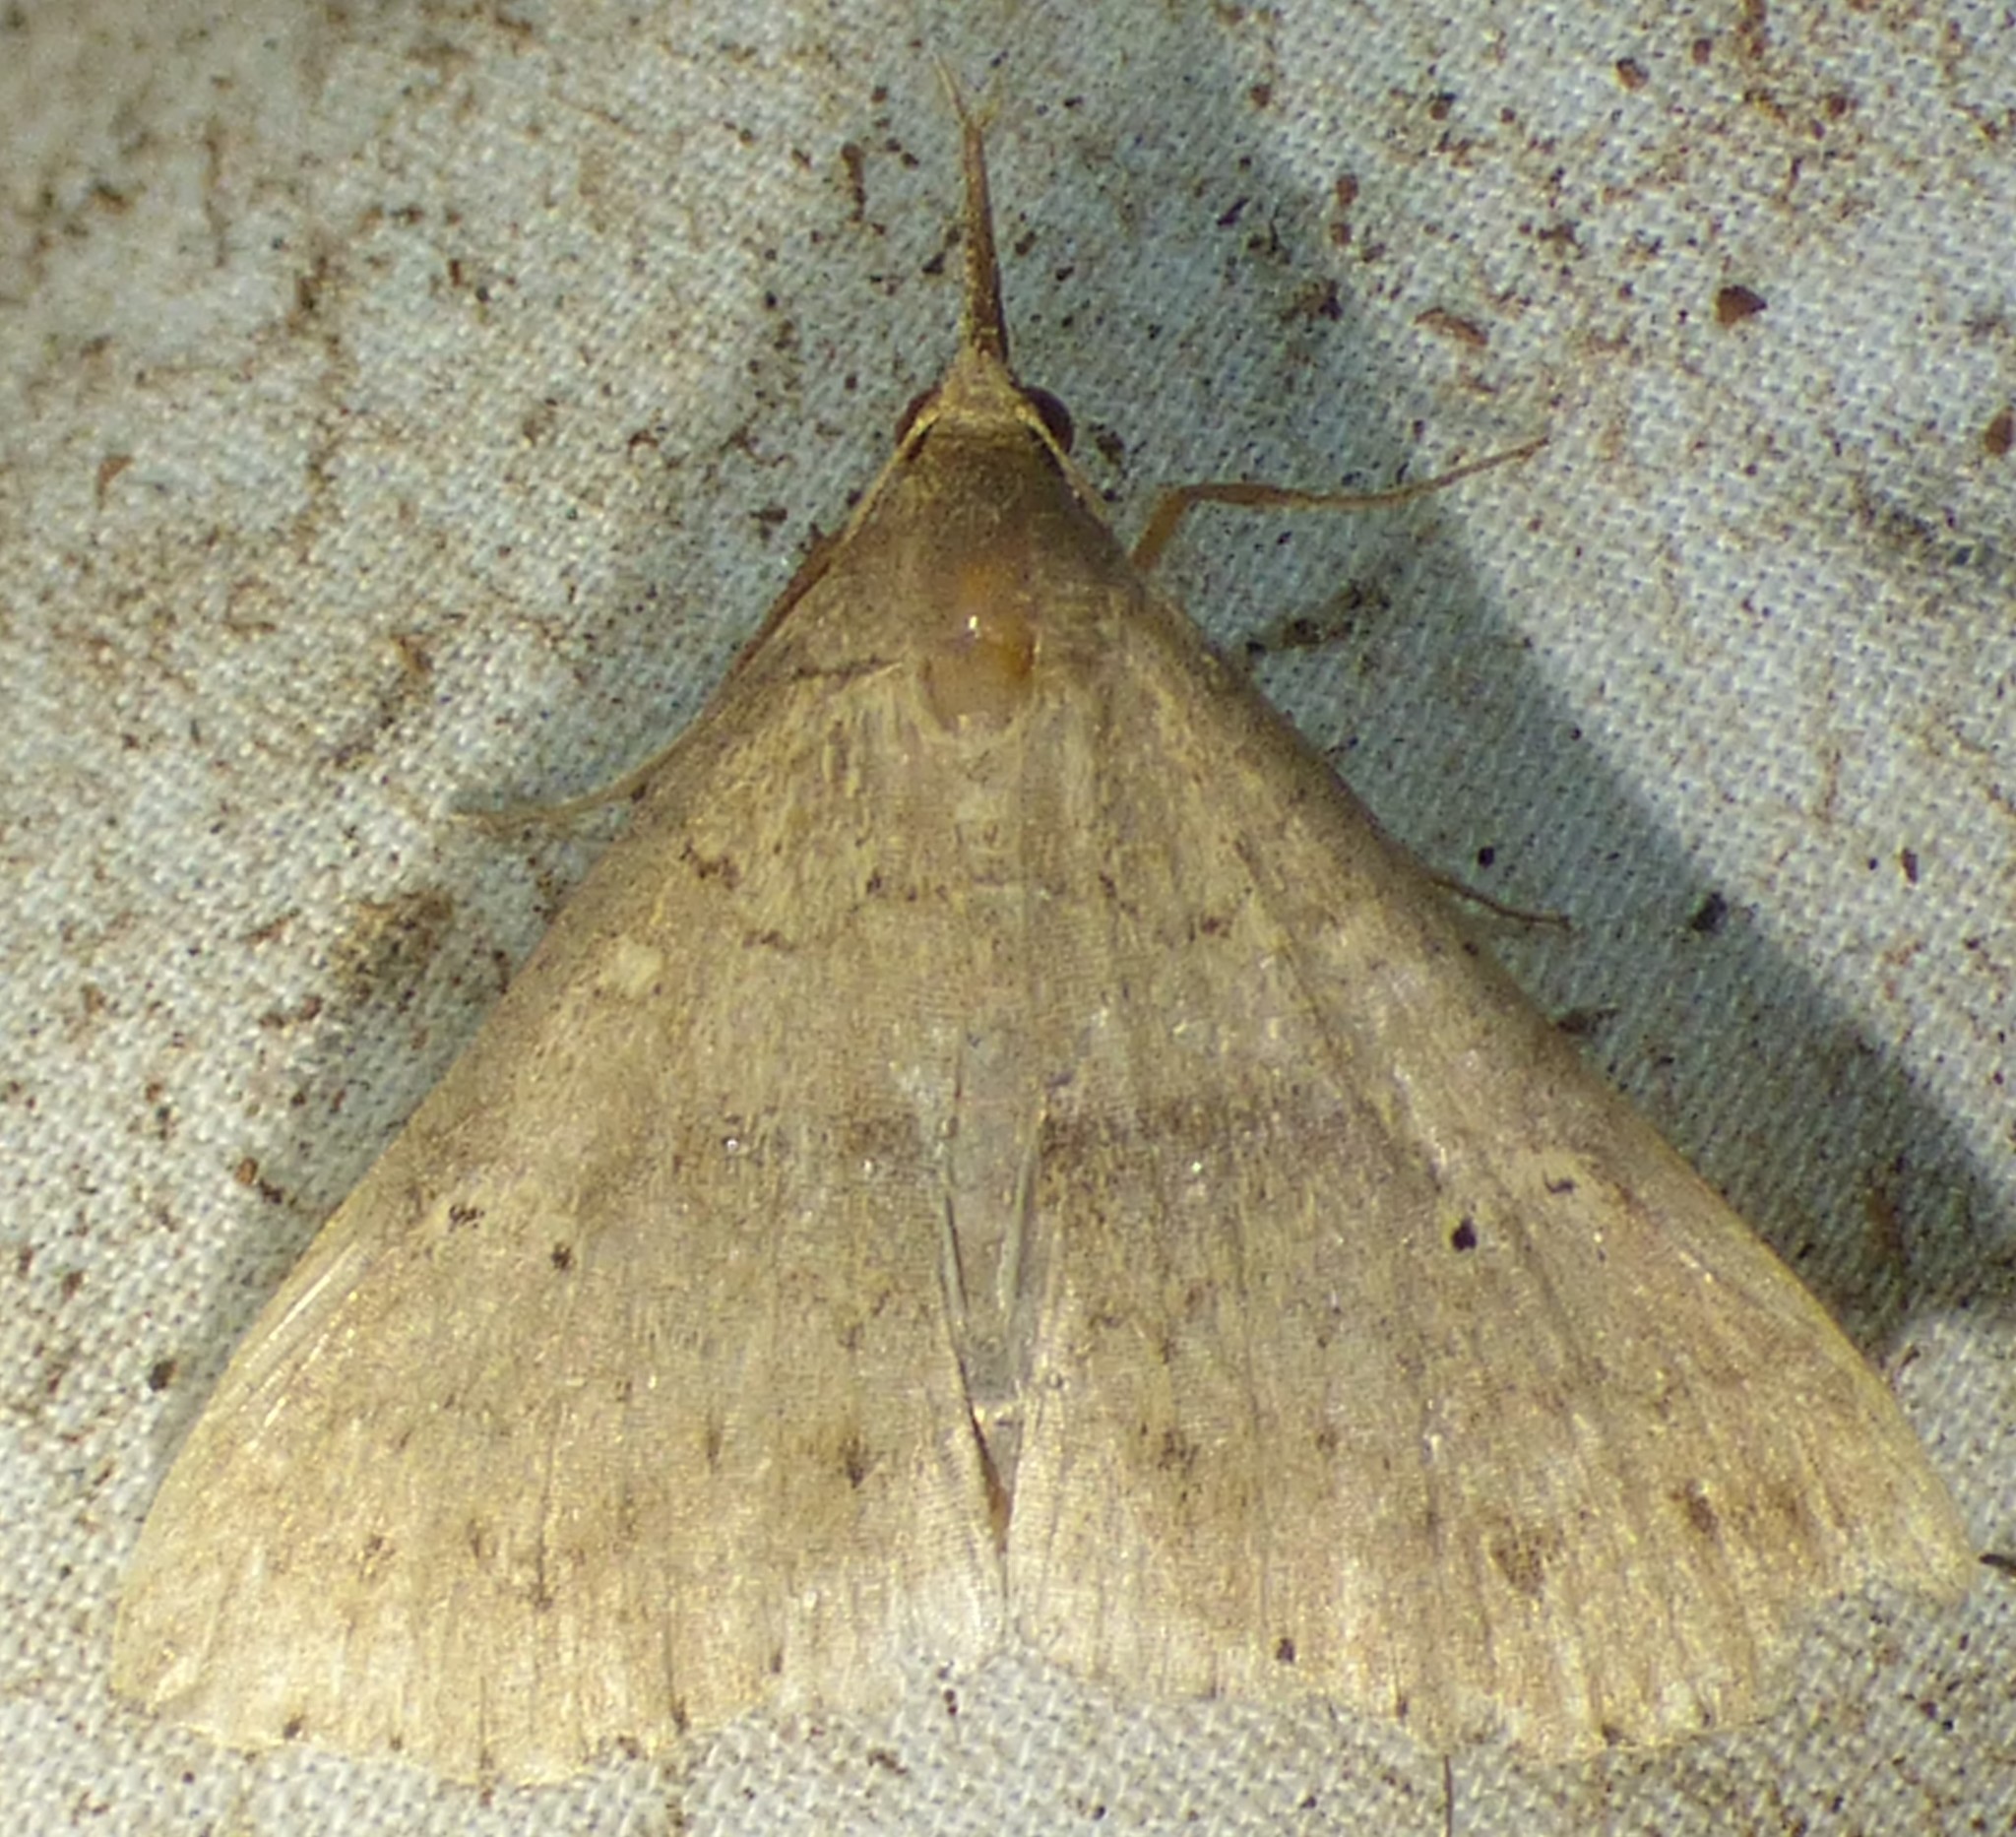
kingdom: Animalia
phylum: Arthropoda
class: Insecta
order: Lepidoptera
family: Erebidae
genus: Renia
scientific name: Renia adspergillus
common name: Speckled renia moth
